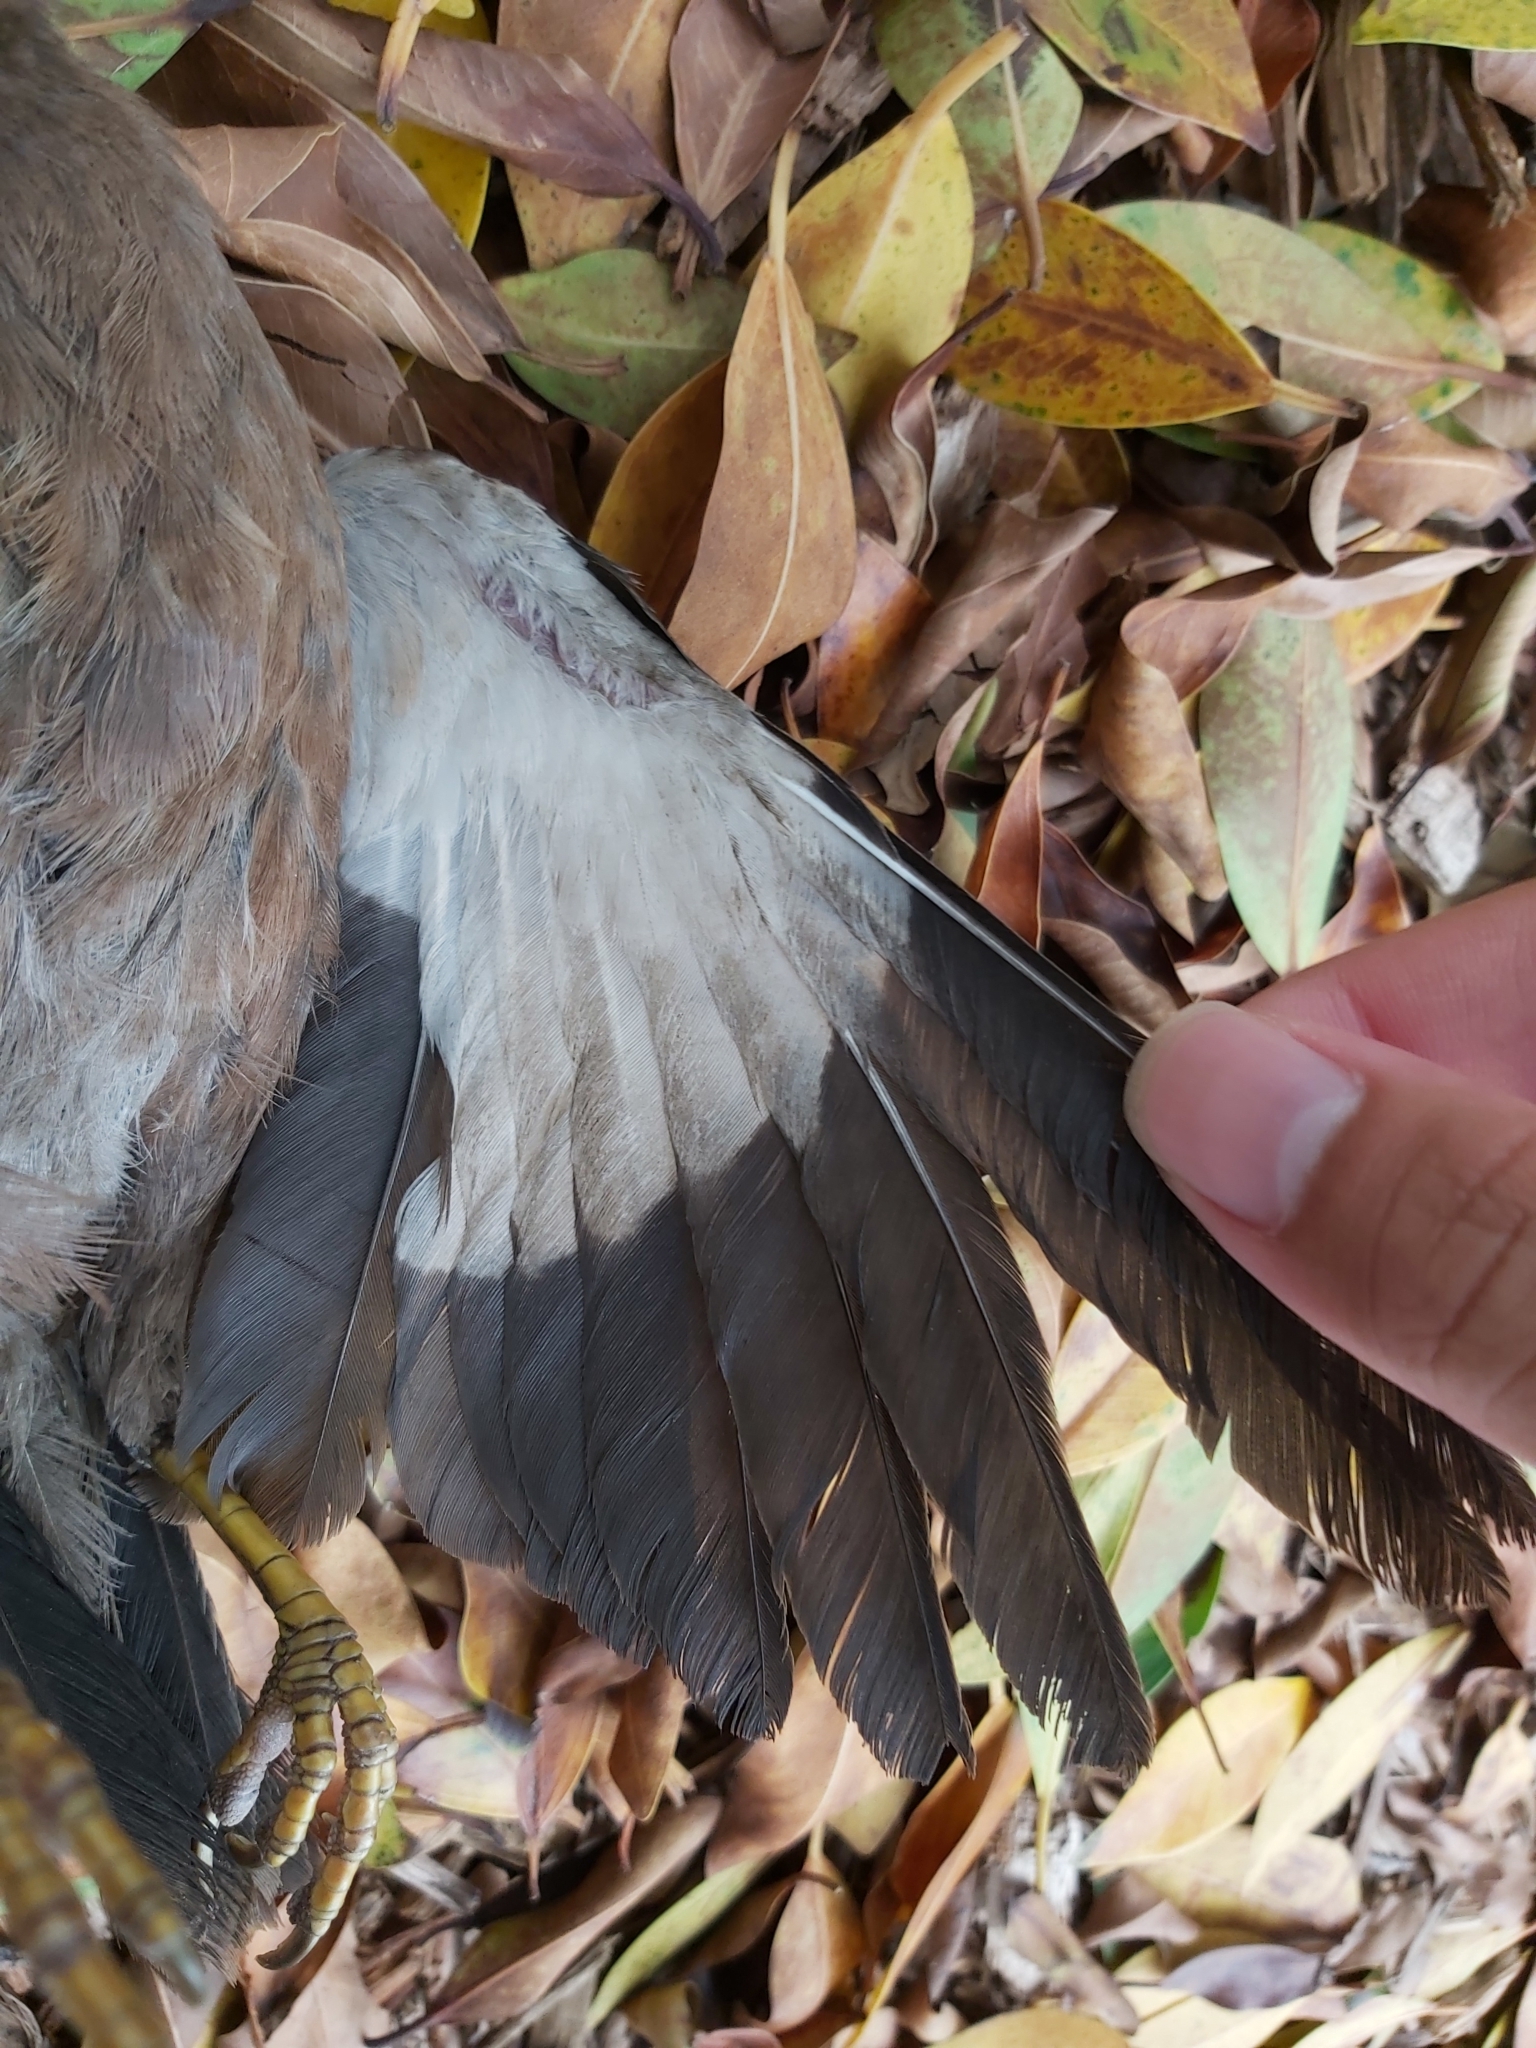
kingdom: Animalia
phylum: Chordata
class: Aves
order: Passeriformes
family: Sturnidae
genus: Acridotheres
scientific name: Acridotheres tristis
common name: Common myna
